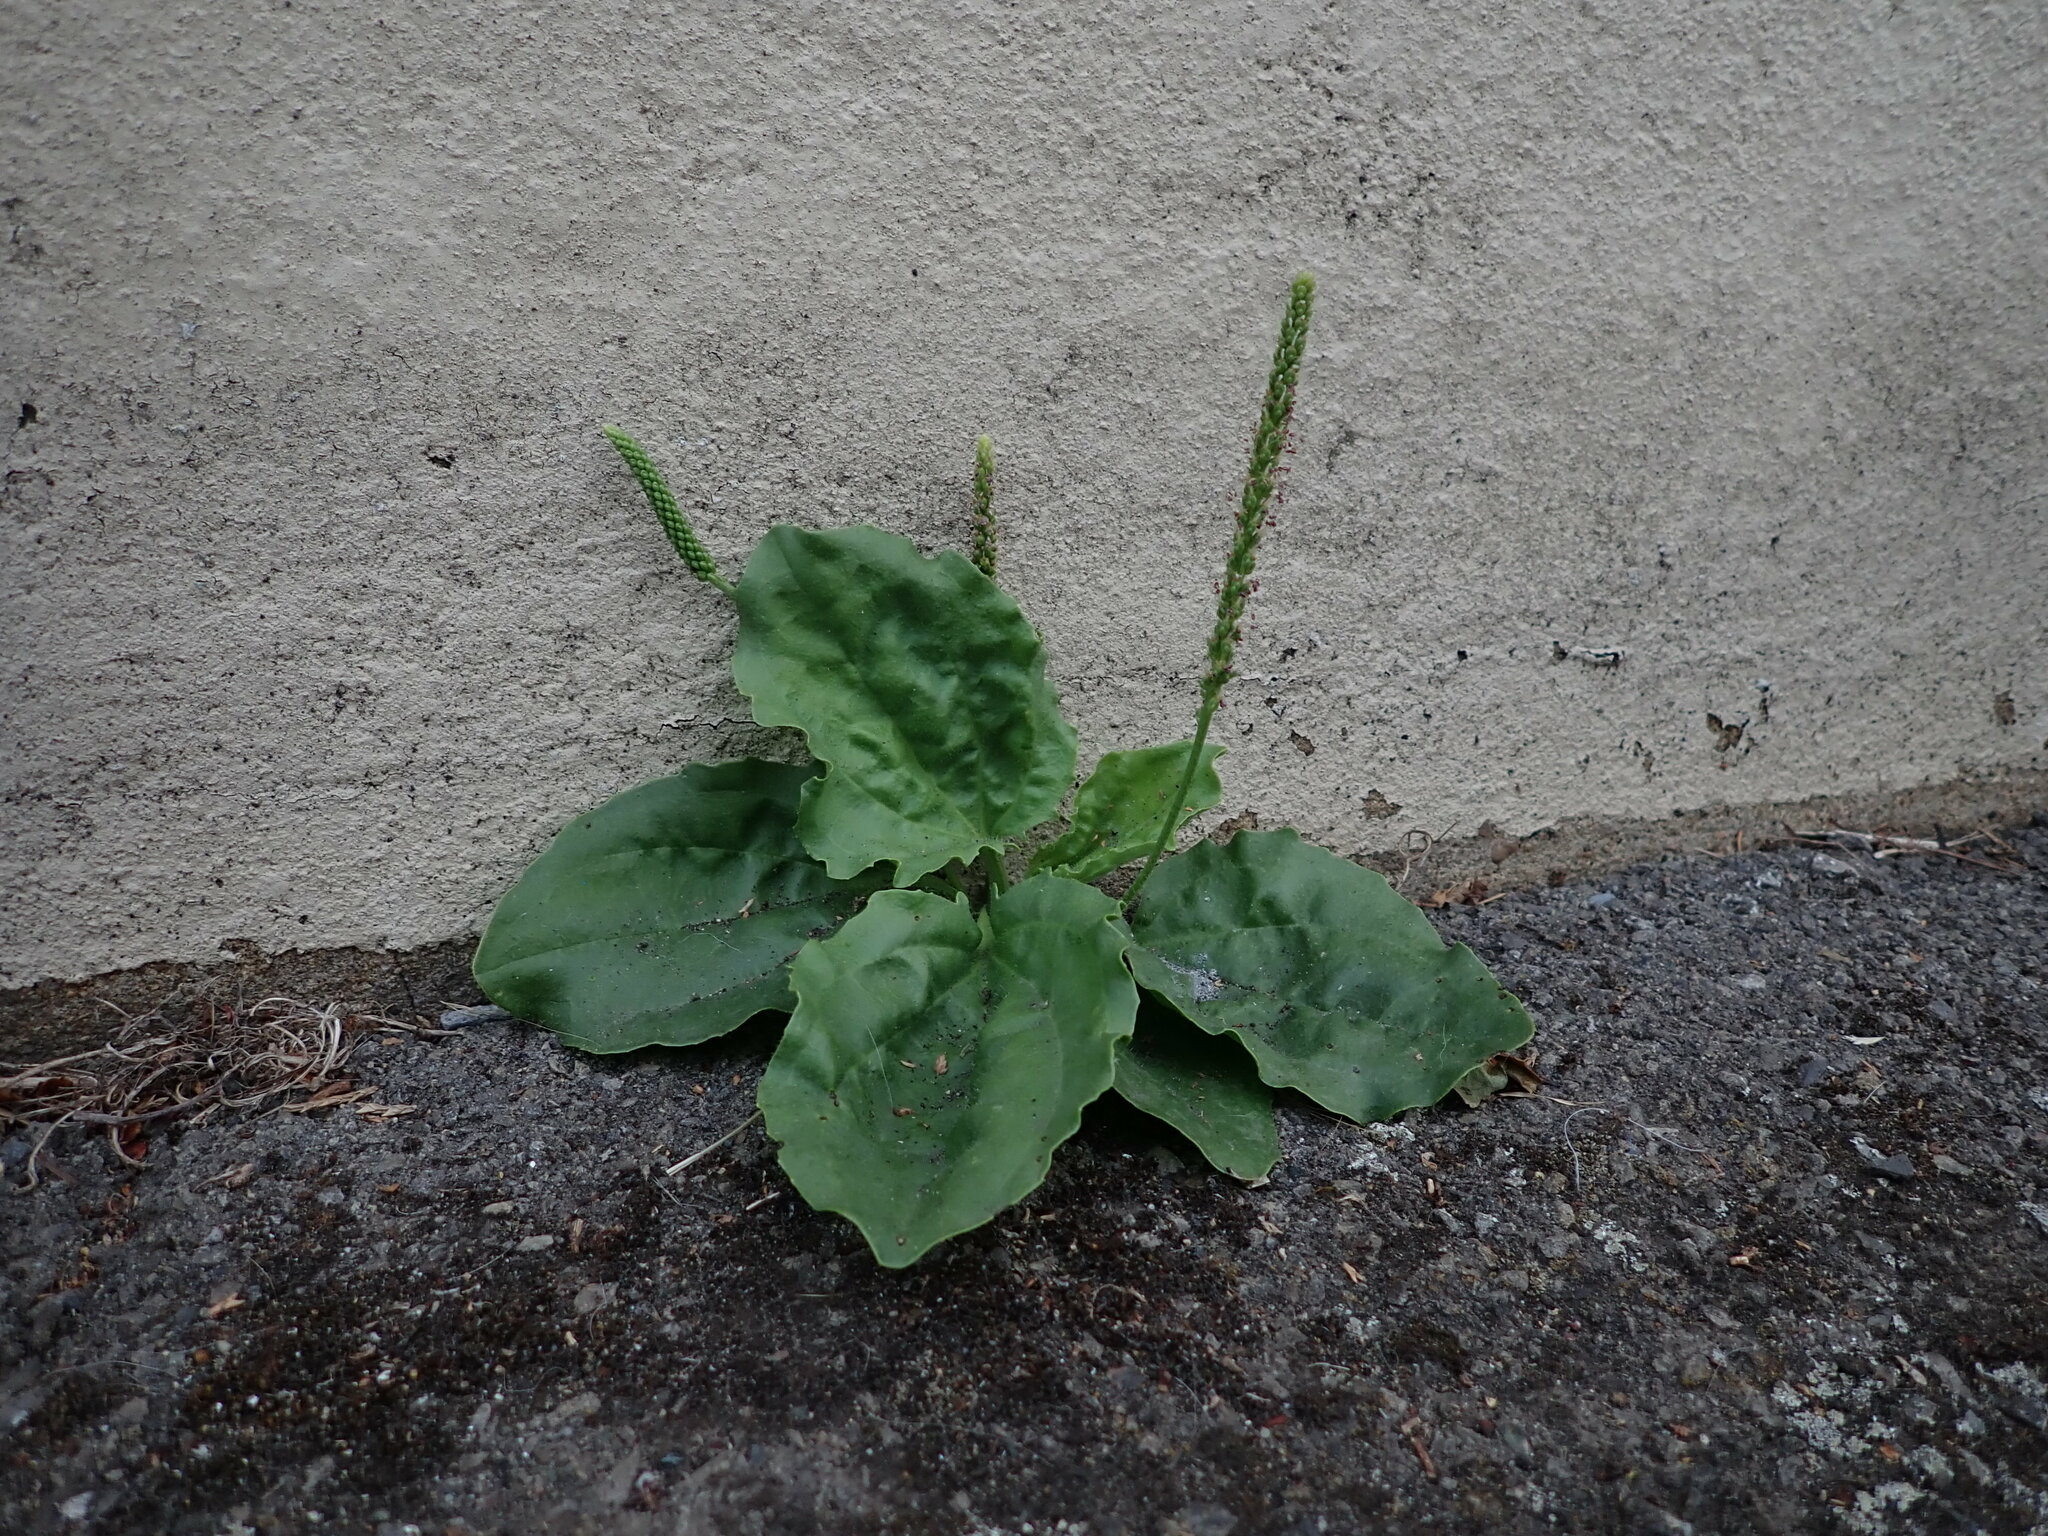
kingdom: Plantae
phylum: Tracheophyta
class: Magnoliopsida
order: Lamiales
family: Plantaginaceae
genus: Plantago
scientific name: Plantago major
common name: Common plantain
